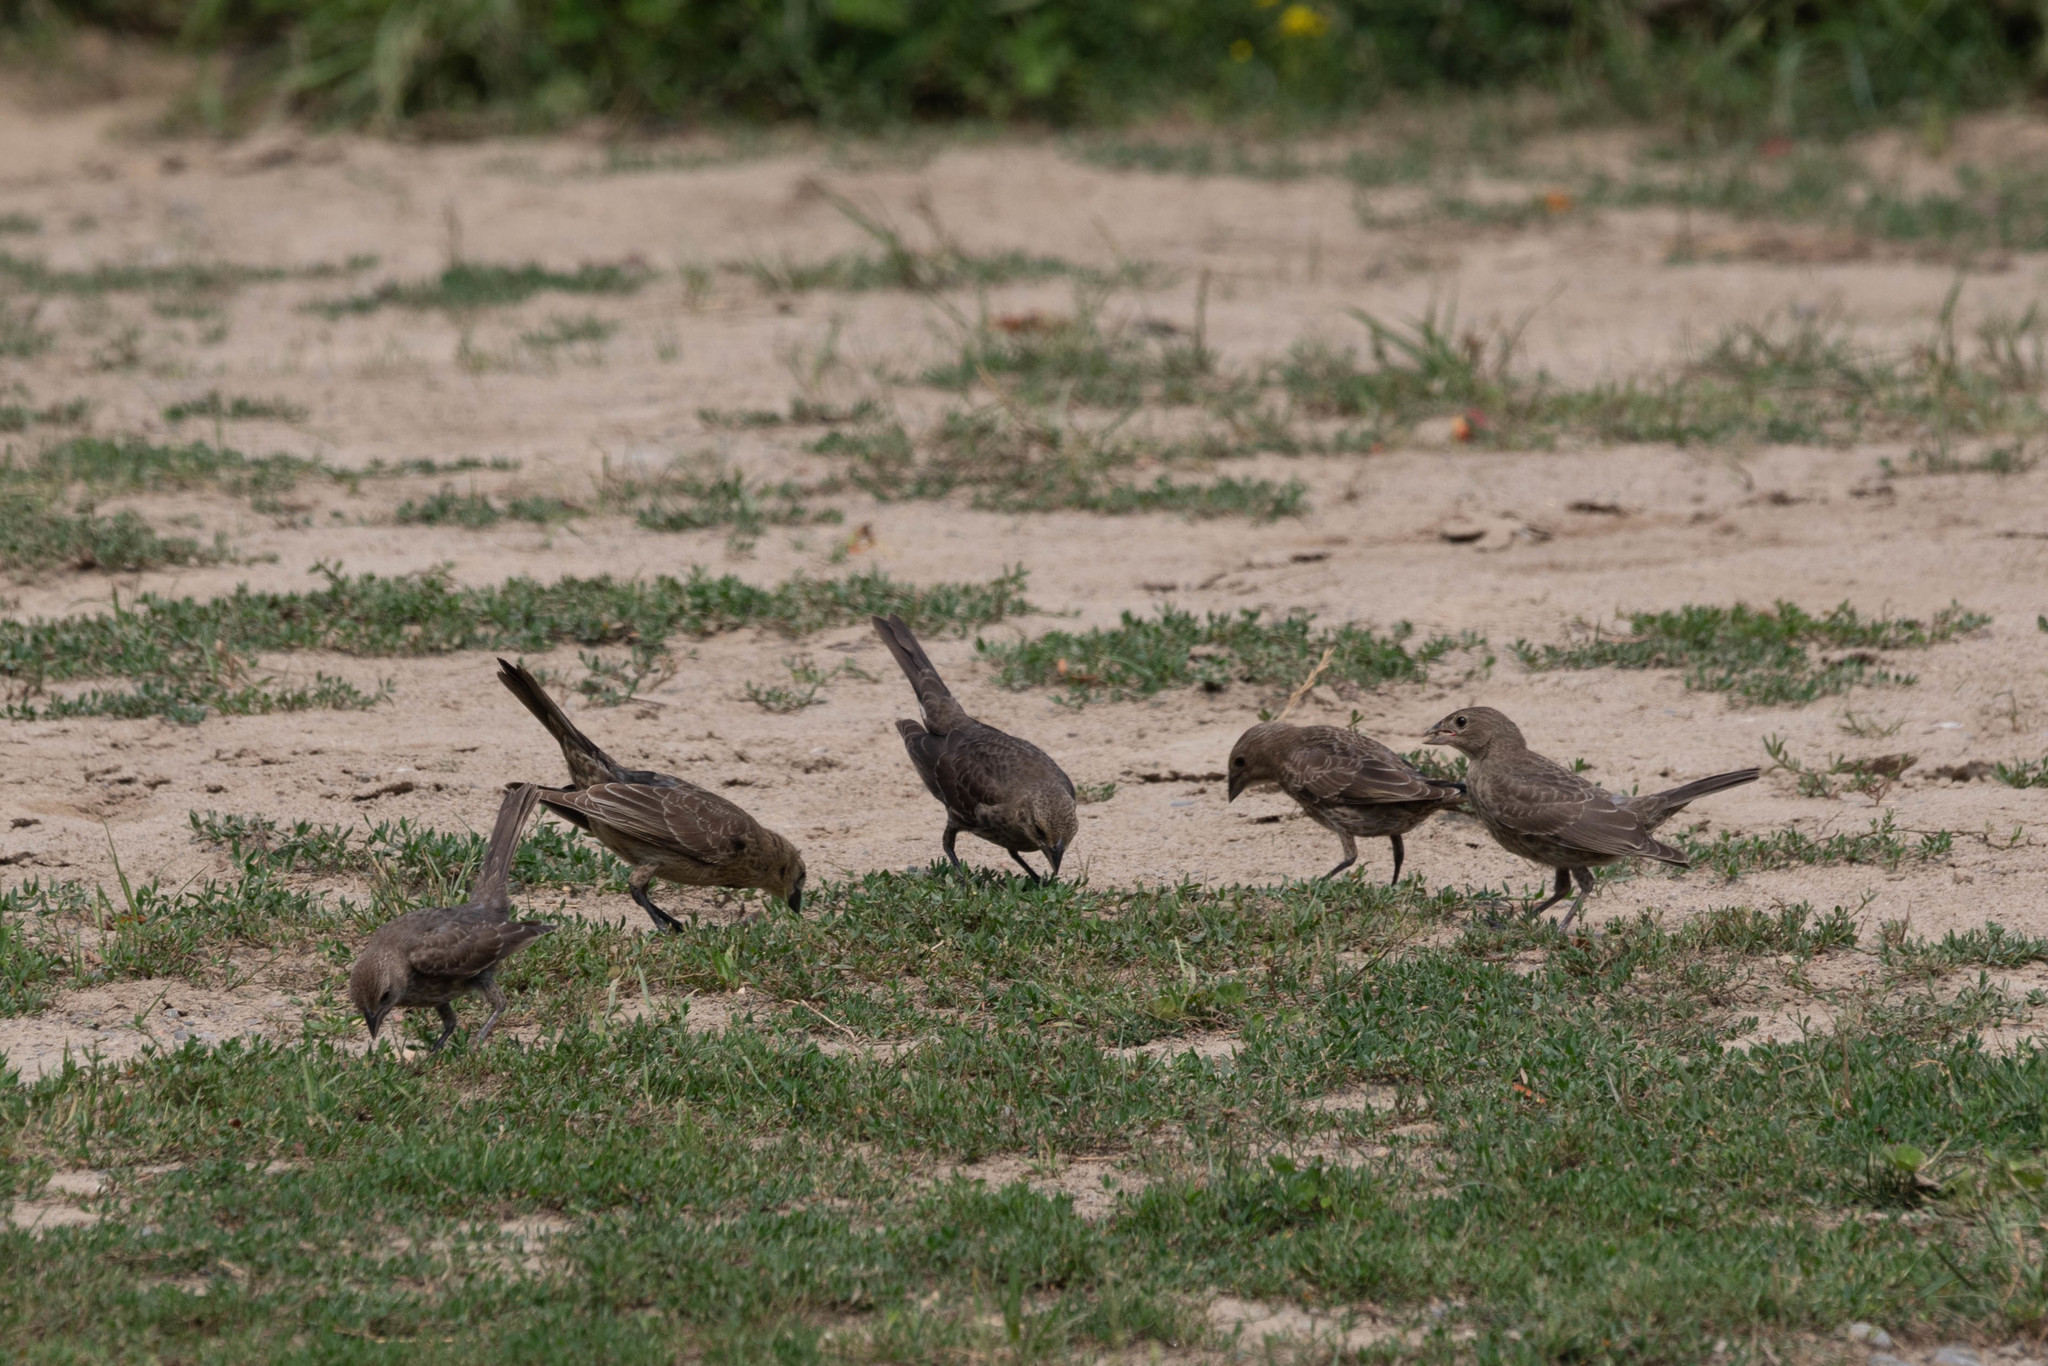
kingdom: Animalia
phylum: Chordata
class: Aves
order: Passeriformes
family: Icteridae
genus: Molothrus
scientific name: Molothrus ater
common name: Brown-headed cowbird
